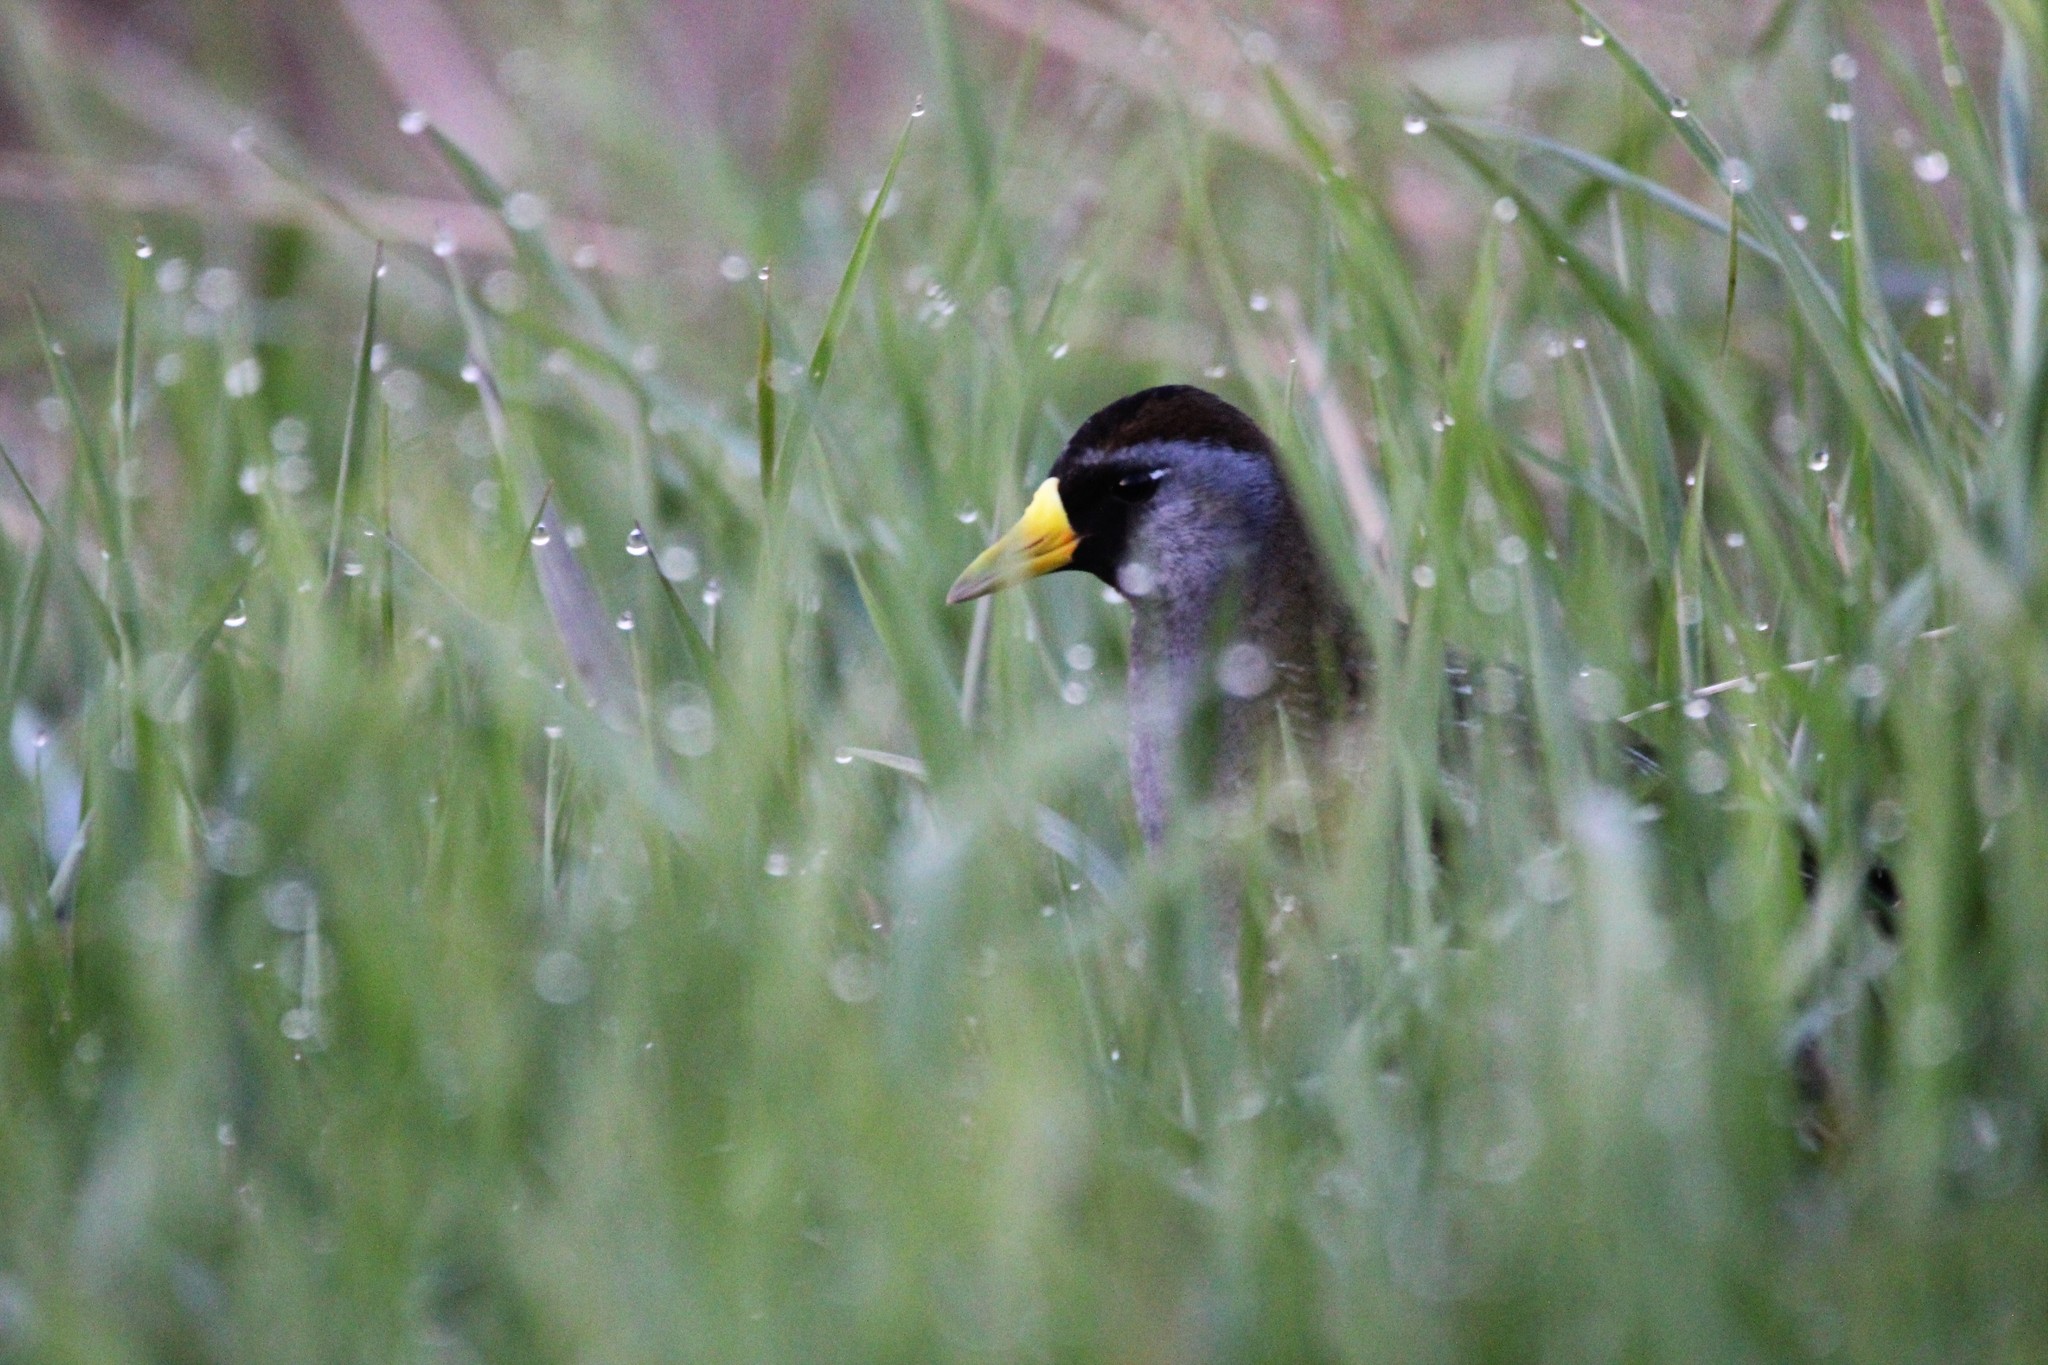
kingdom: Animalia
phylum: Chordata
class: Aves
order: Gruiformes
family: Rallidae
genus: Porzana
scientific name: Porzana carolina
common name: Sora
